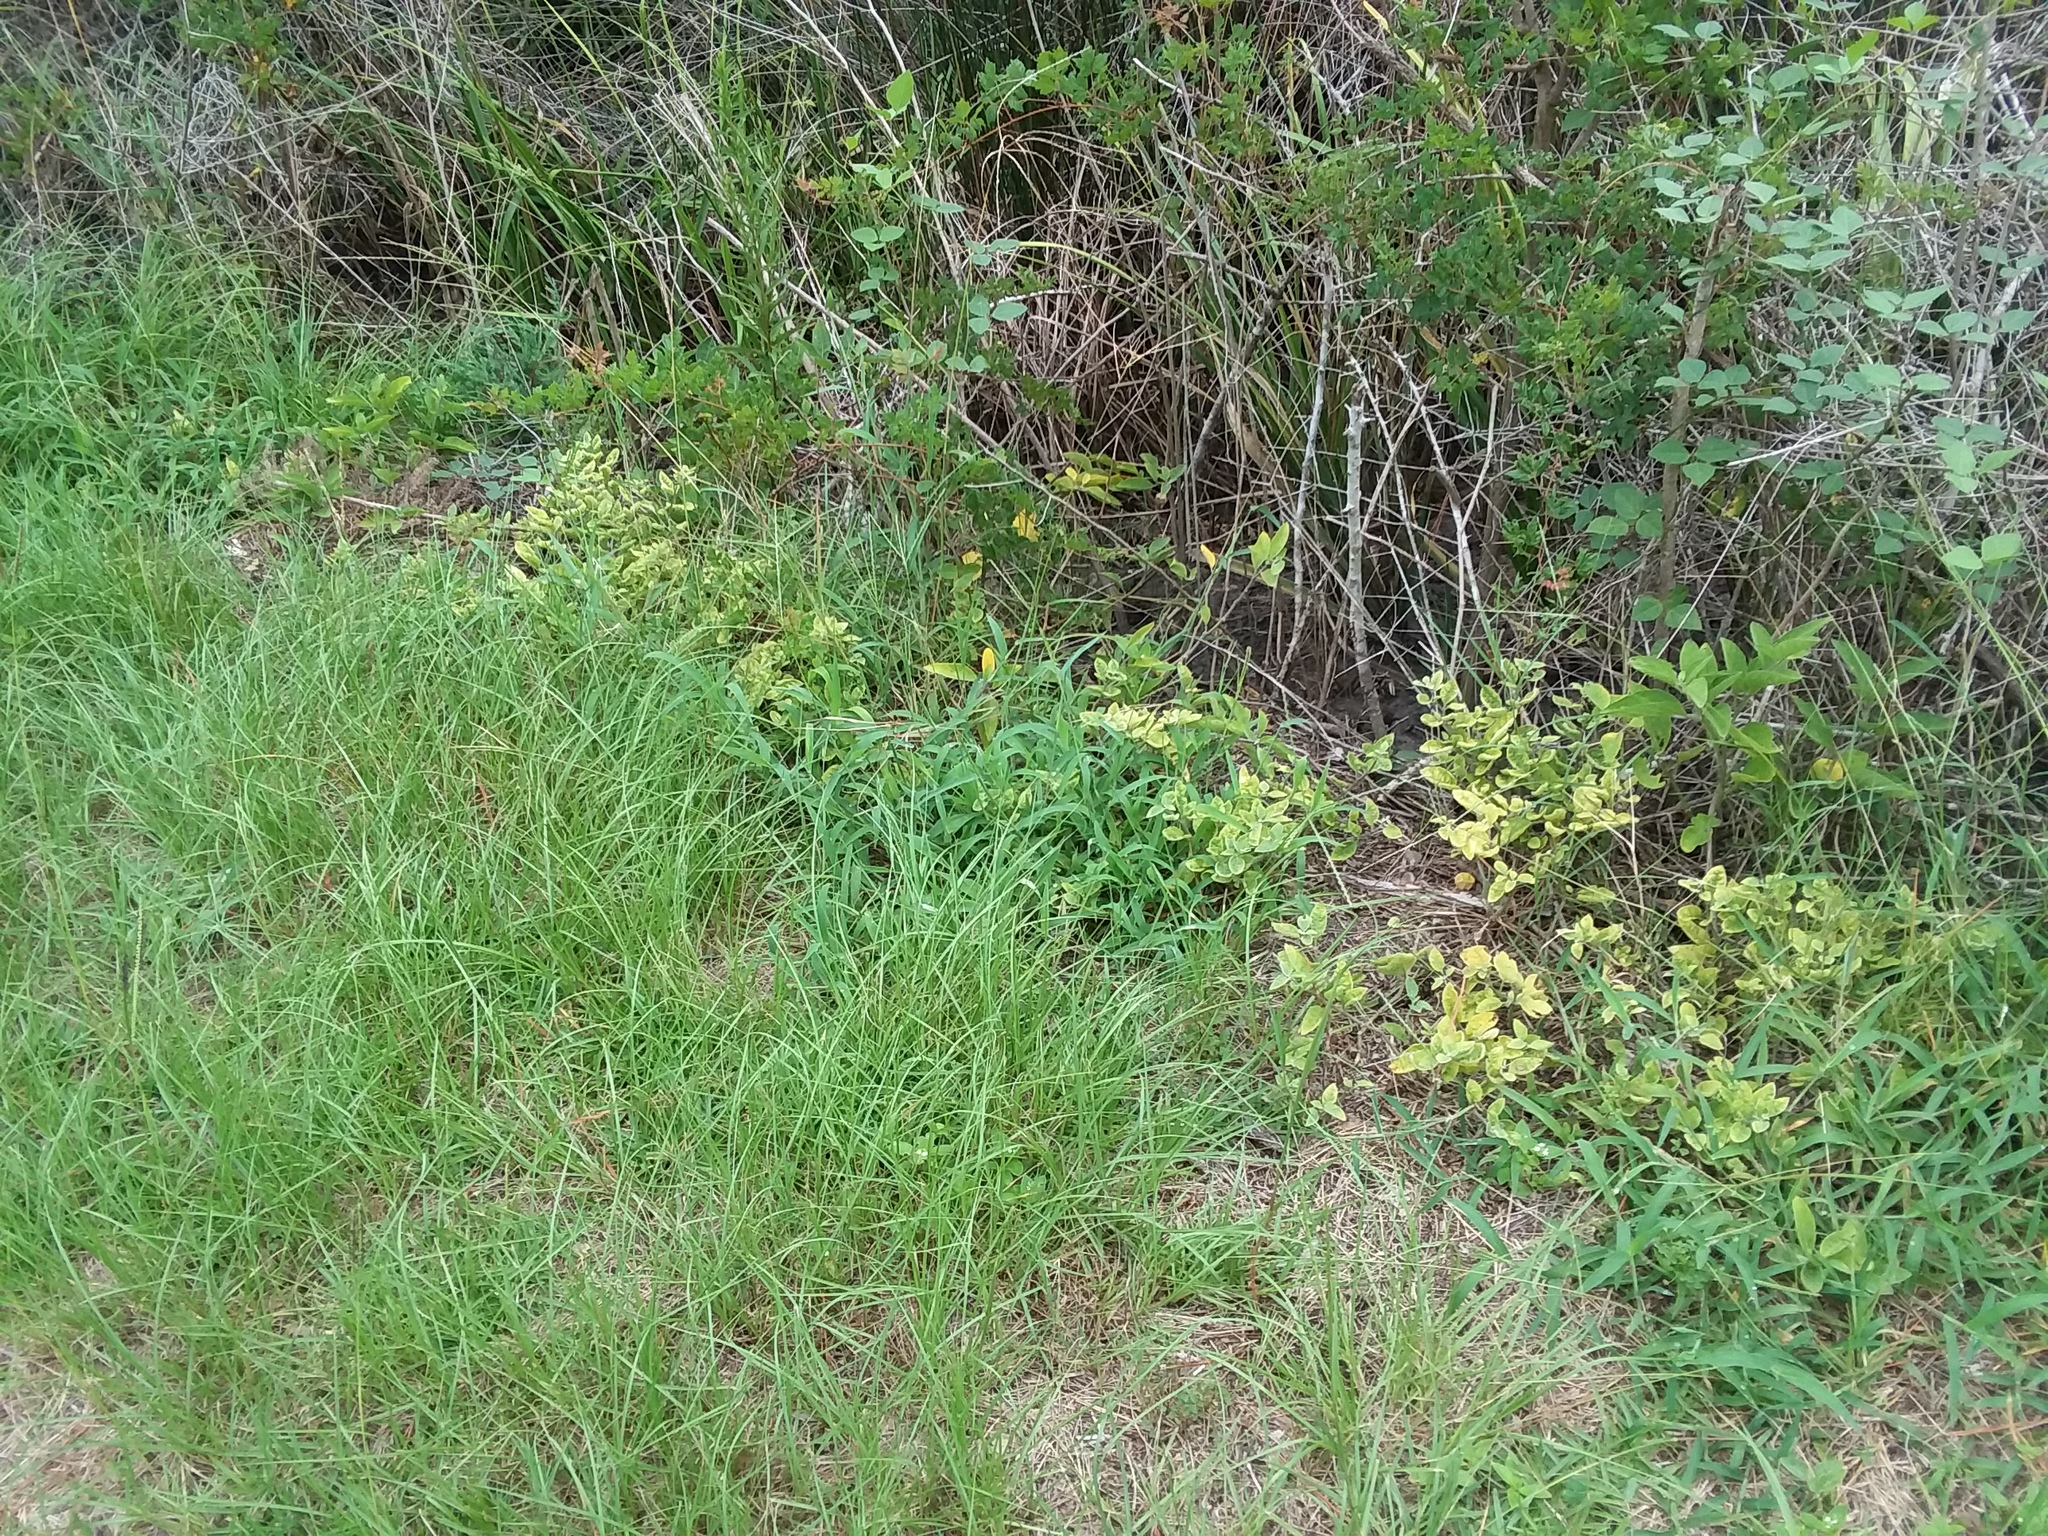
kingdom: Plantae
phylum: Tracheophyta
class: Magnoliopsida
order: Solanales
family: Solanaceae
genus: Physalis
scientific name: Physalis walteri
